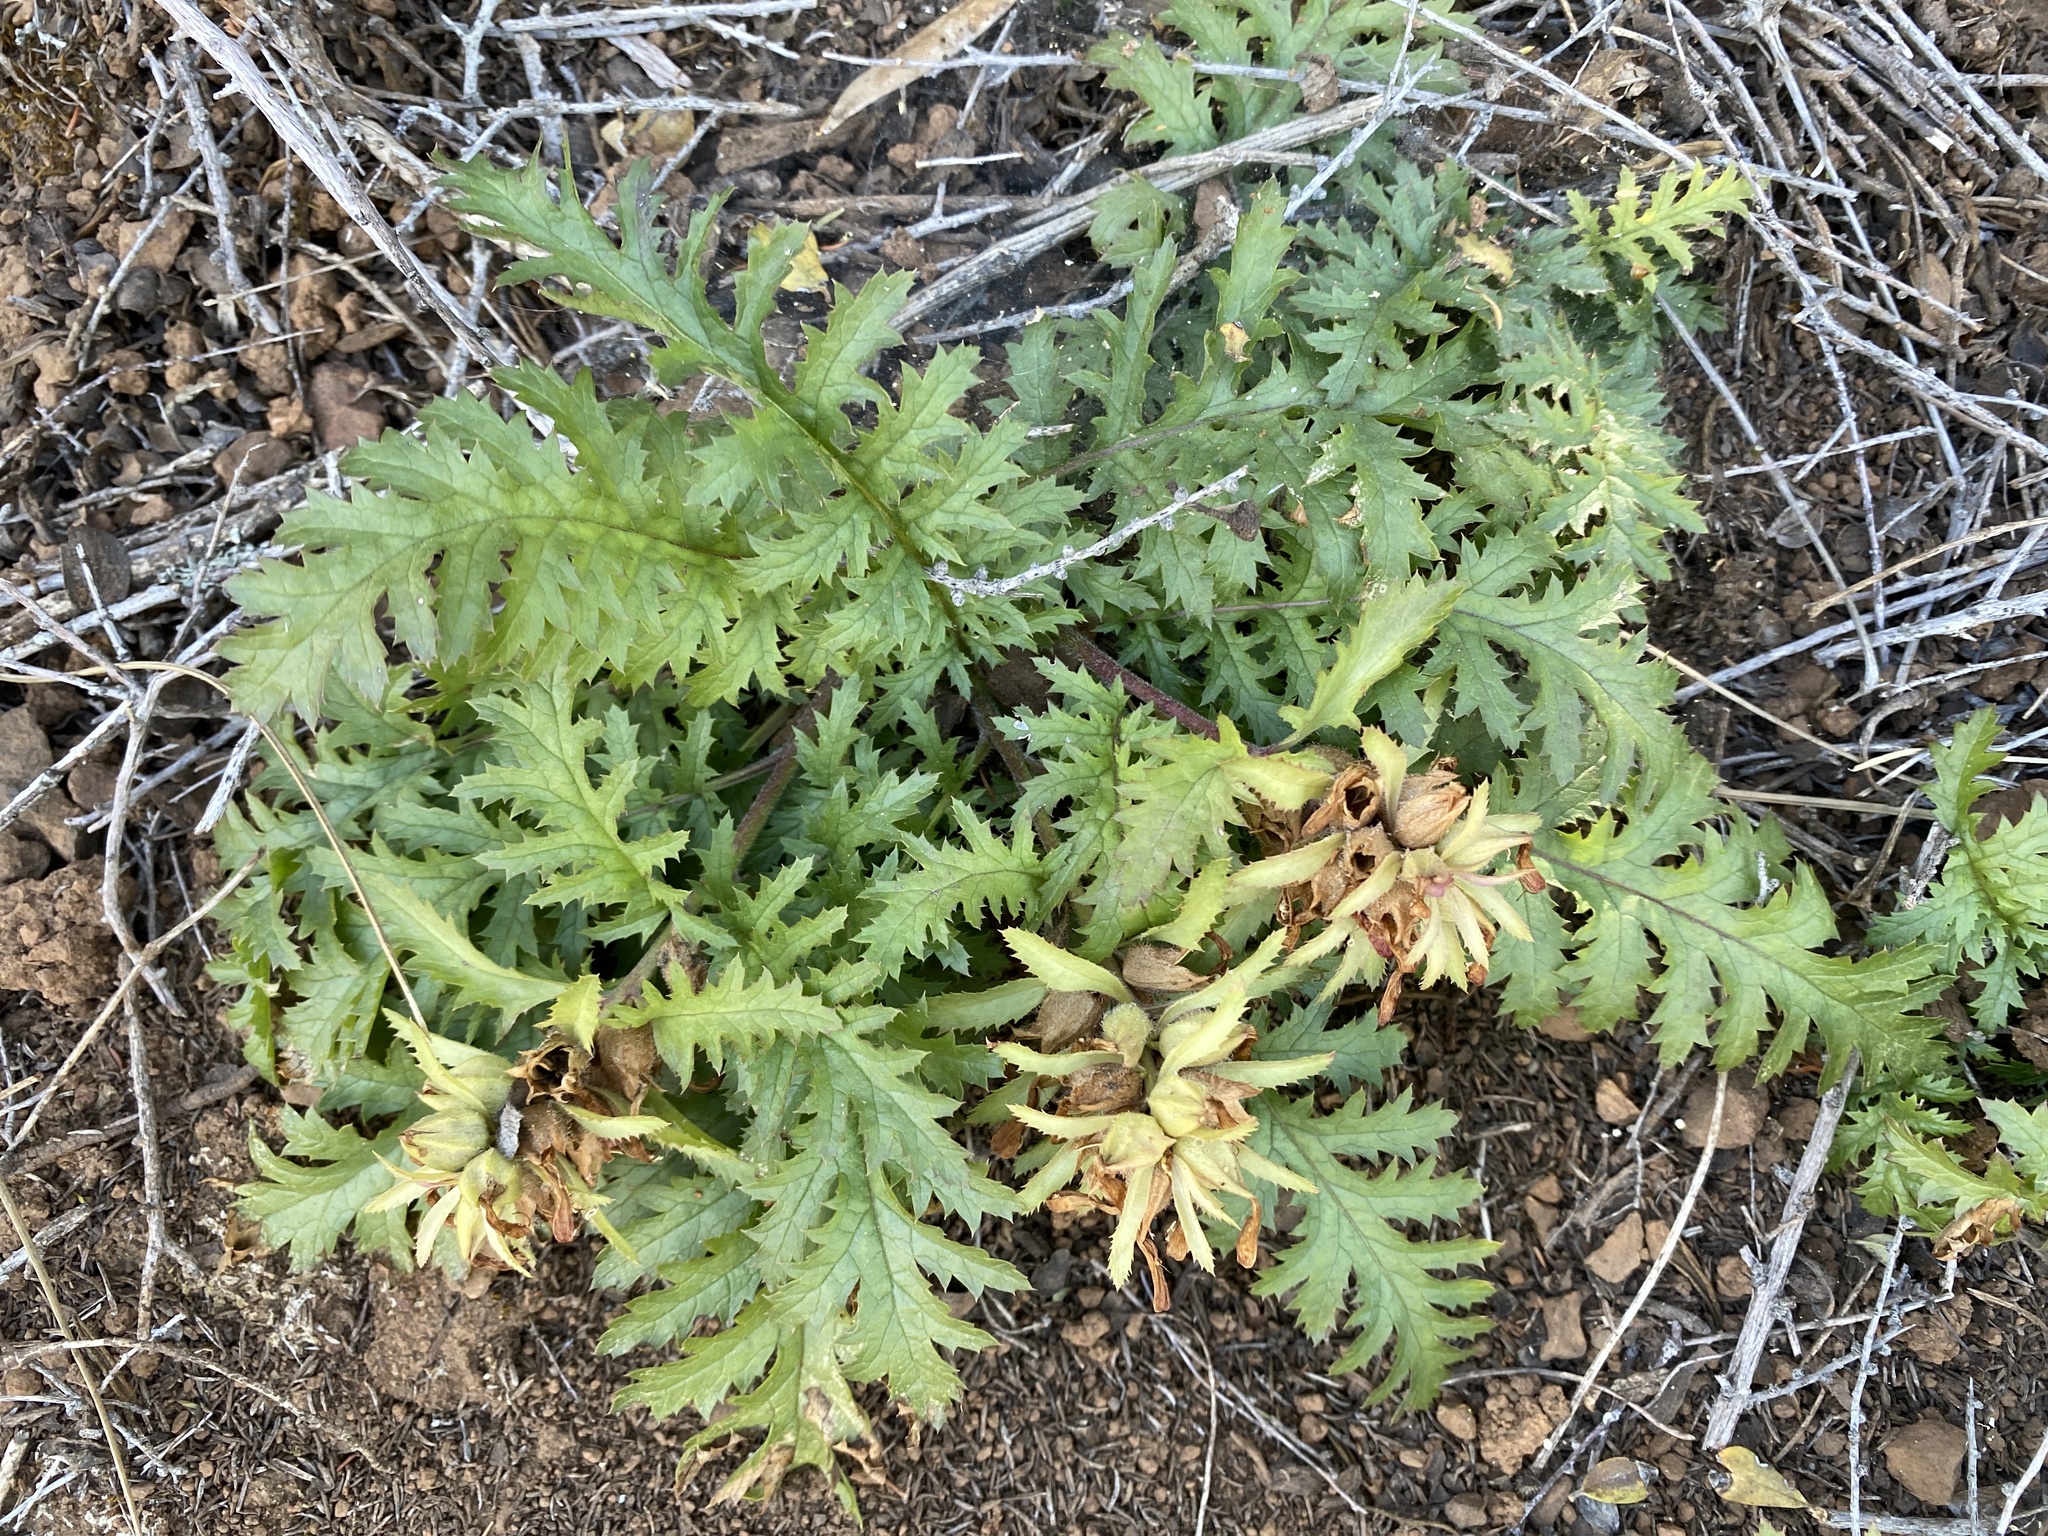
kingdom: Plantae
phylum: Tracheophyta
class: Magnoliopsida
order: Lamiales
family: Orobanchaceae
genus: Pedicularis
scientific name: Pedicularis densiflora
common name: Indian warrior
